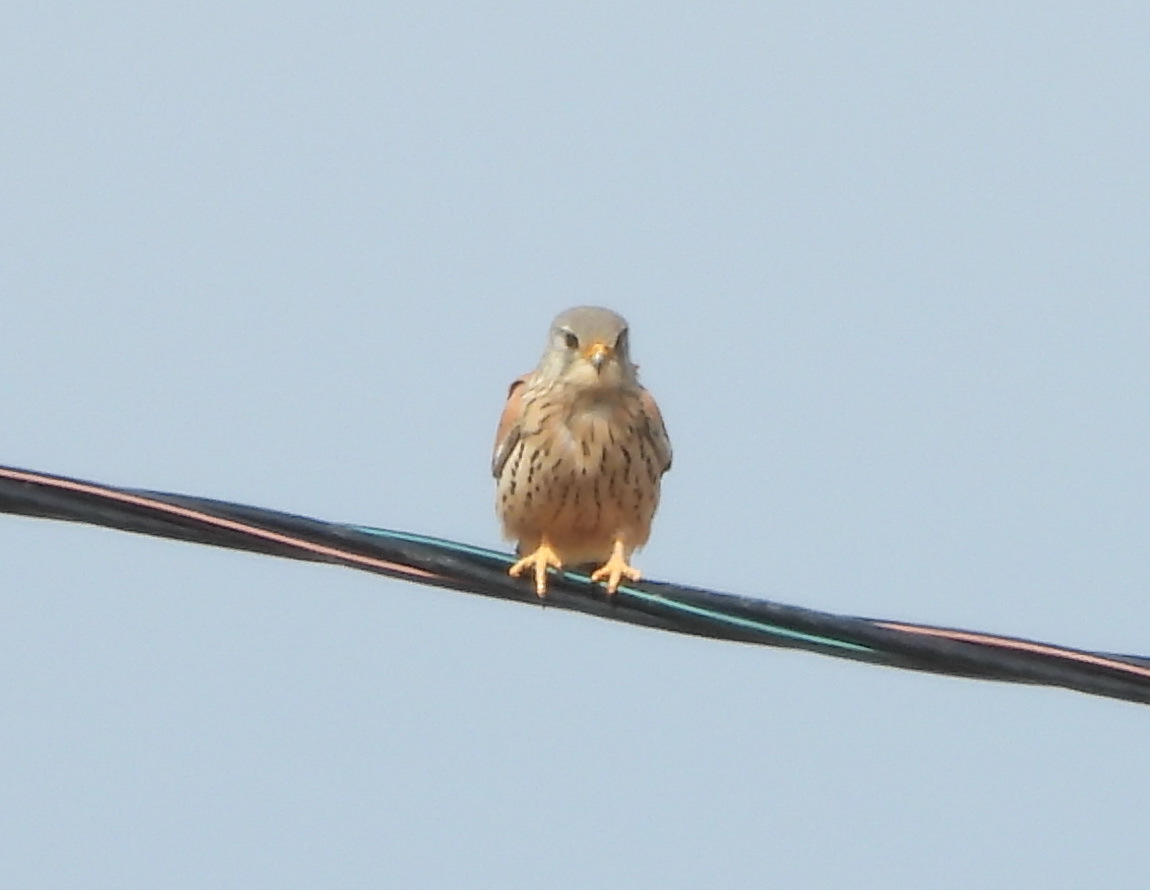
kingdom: Animalia
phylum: Chordata
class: Aves
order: Falconiformes
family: Falconidae
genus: Falco
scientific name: Falco tinnunculus
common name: Common kestrel
